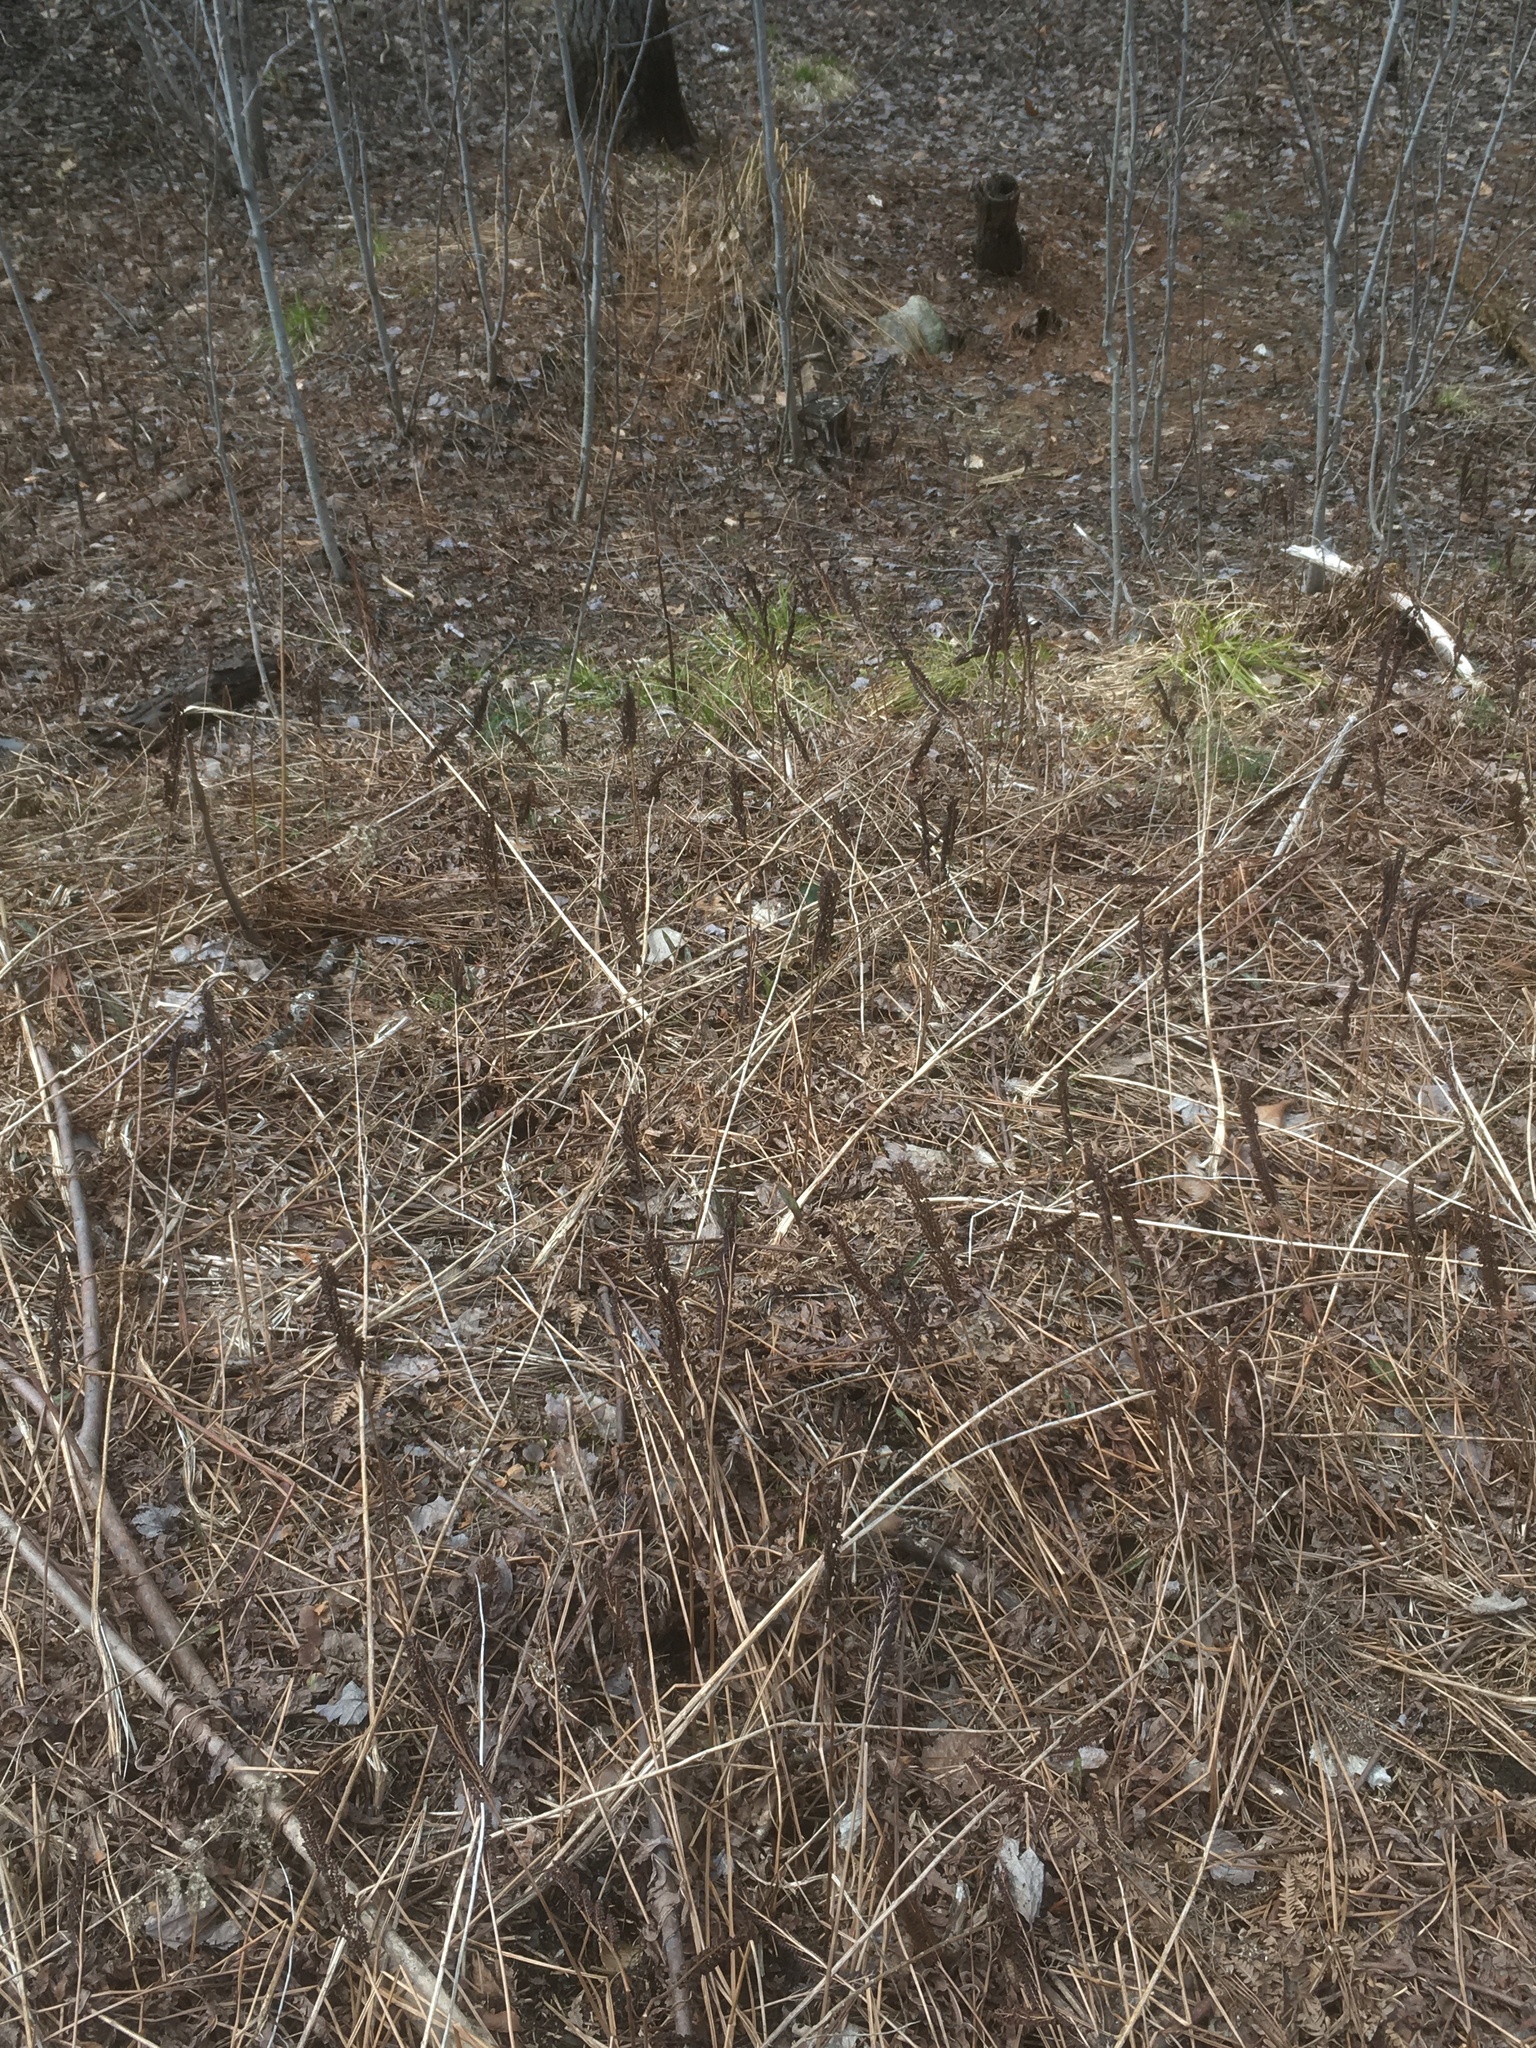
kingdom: Plantae
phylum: Tracheophyta
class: Polypodiopsida
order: Polypodiales
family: Onocleaceae
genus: Onoclea
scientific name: Onoclea sensibilis
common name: Sensitive fern
